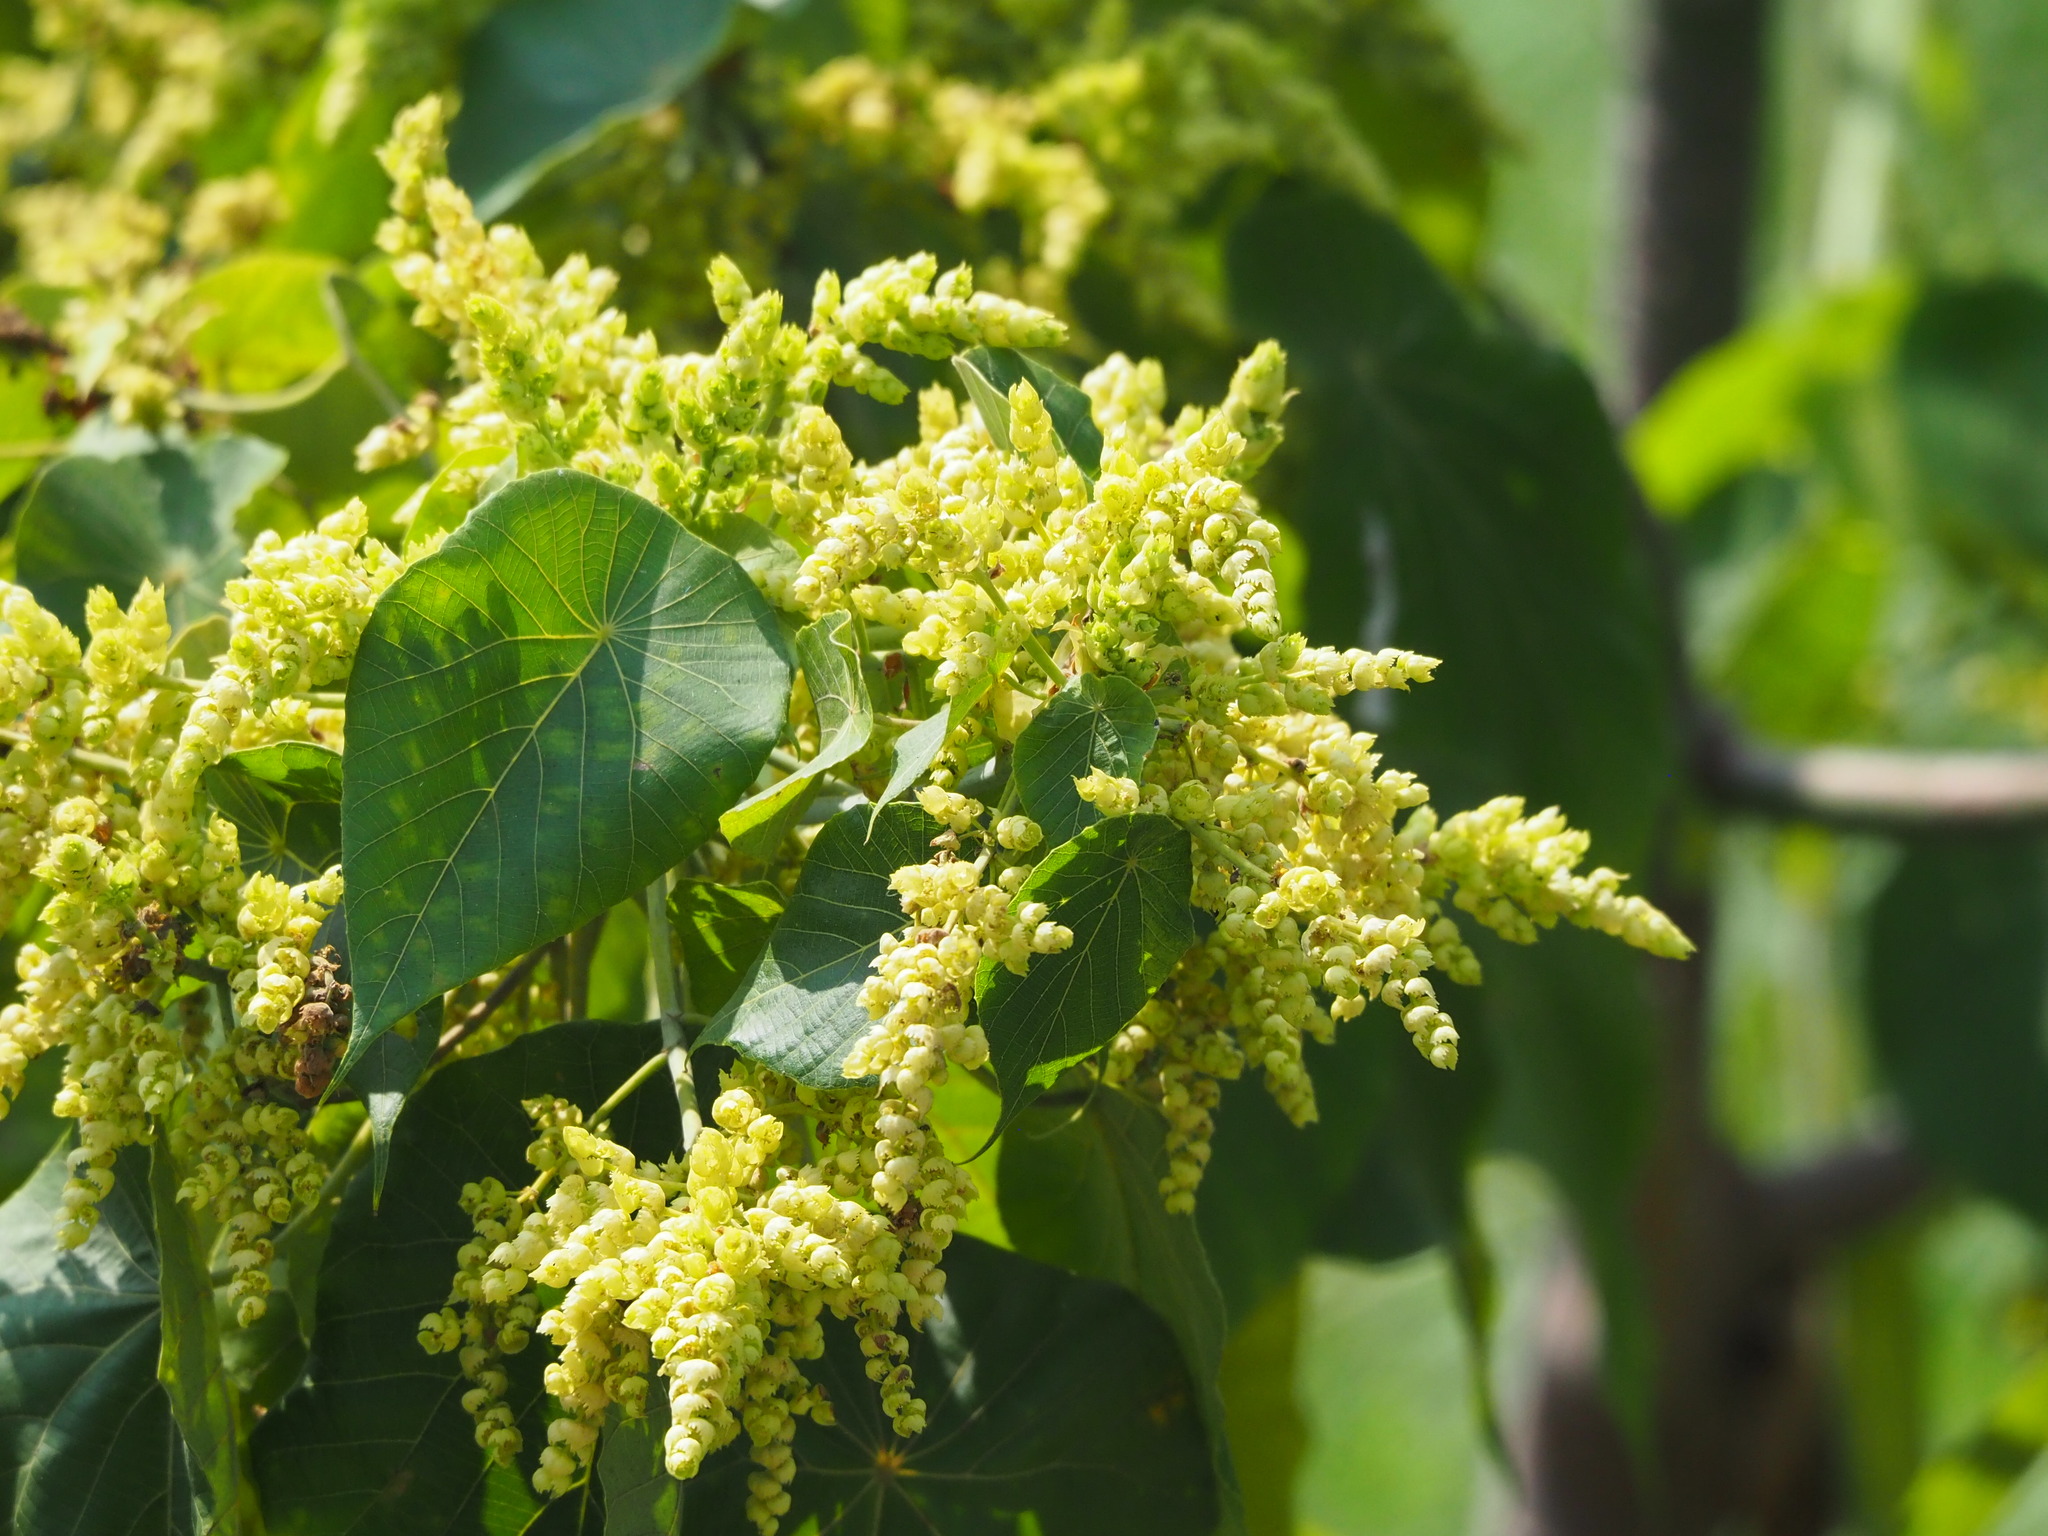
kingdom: Plantae
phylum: Tracheophyta
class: Magnoliopsida
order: Malpighiales
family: Euphorbiaceae
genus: Macaranga
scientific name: Macaranga tanarius
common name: Parasol leaf tree
